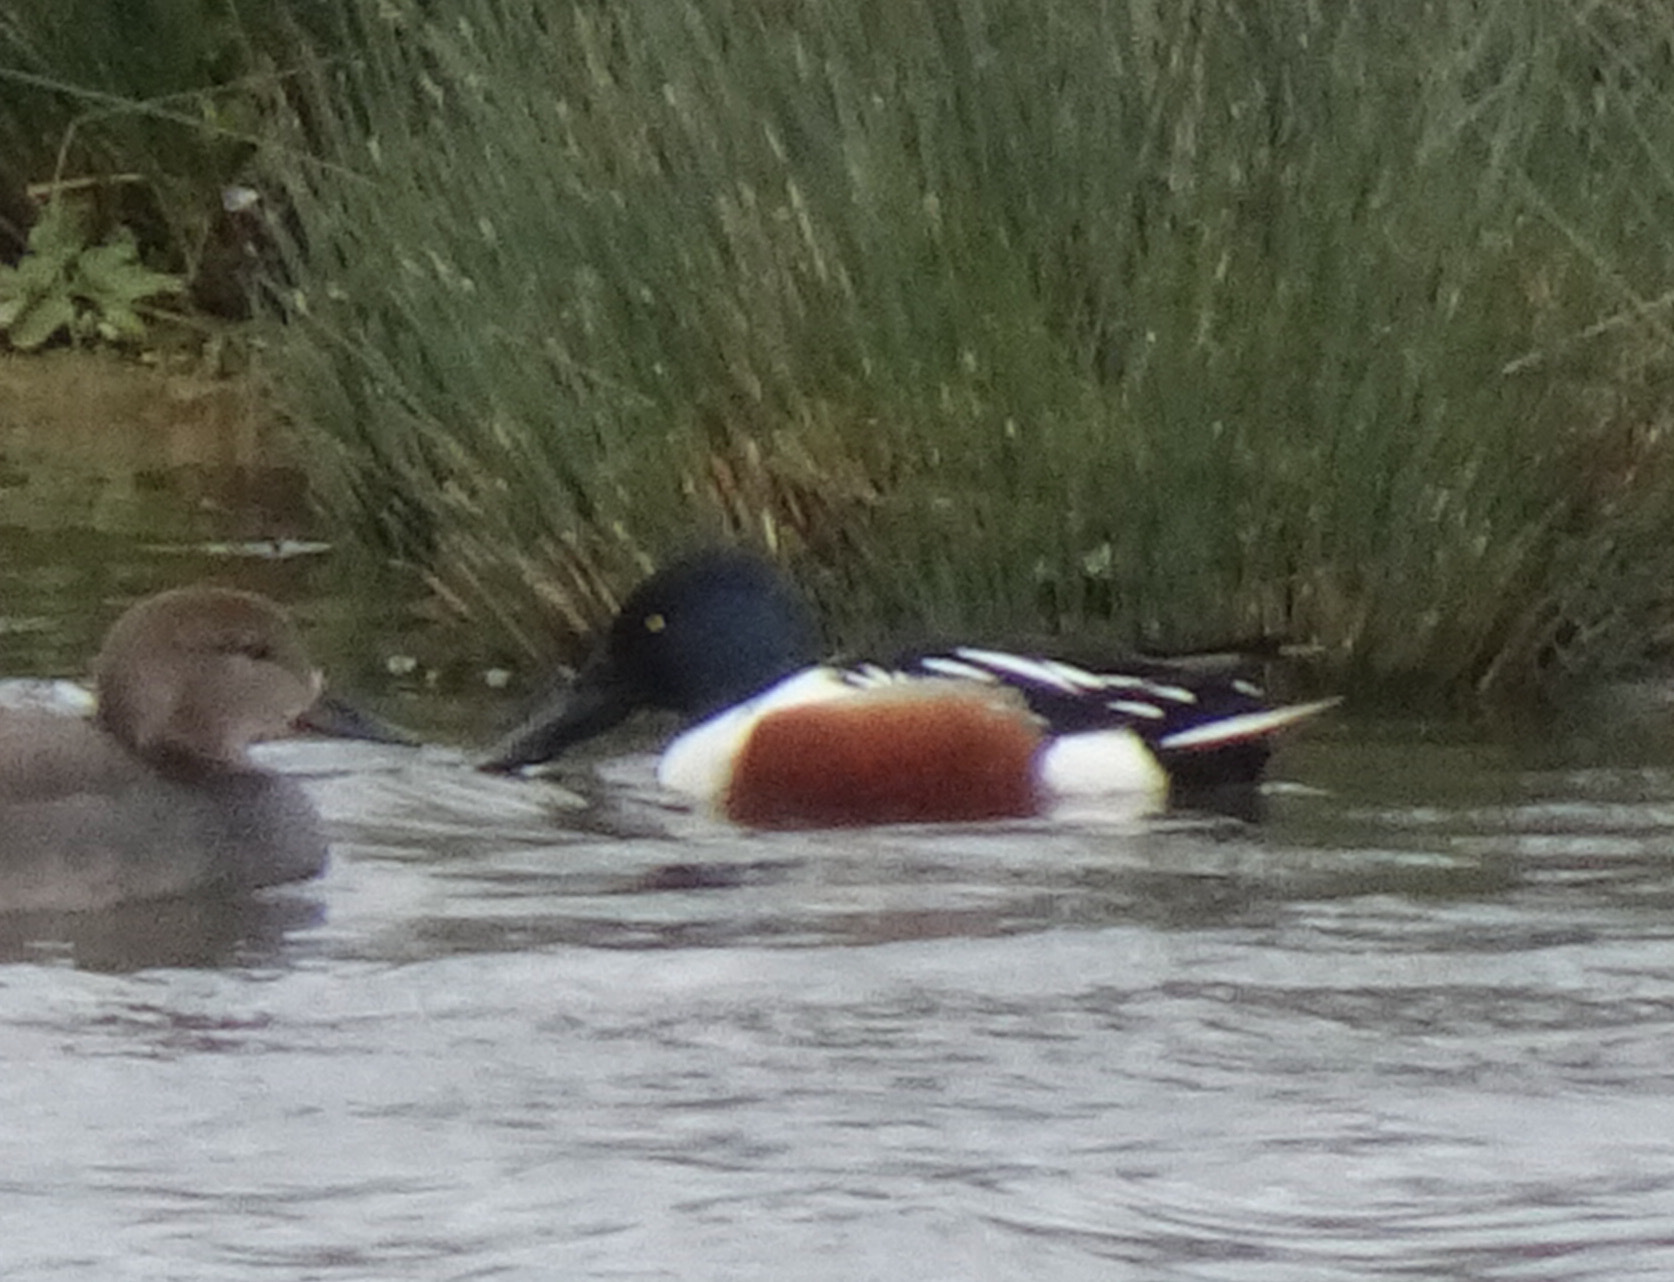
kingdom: Animalia
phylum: Chordata
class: Aves
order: Anseriformes
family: Anatidae
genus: Spatula
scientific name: Spatula clypeata
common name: Northern shoveler
